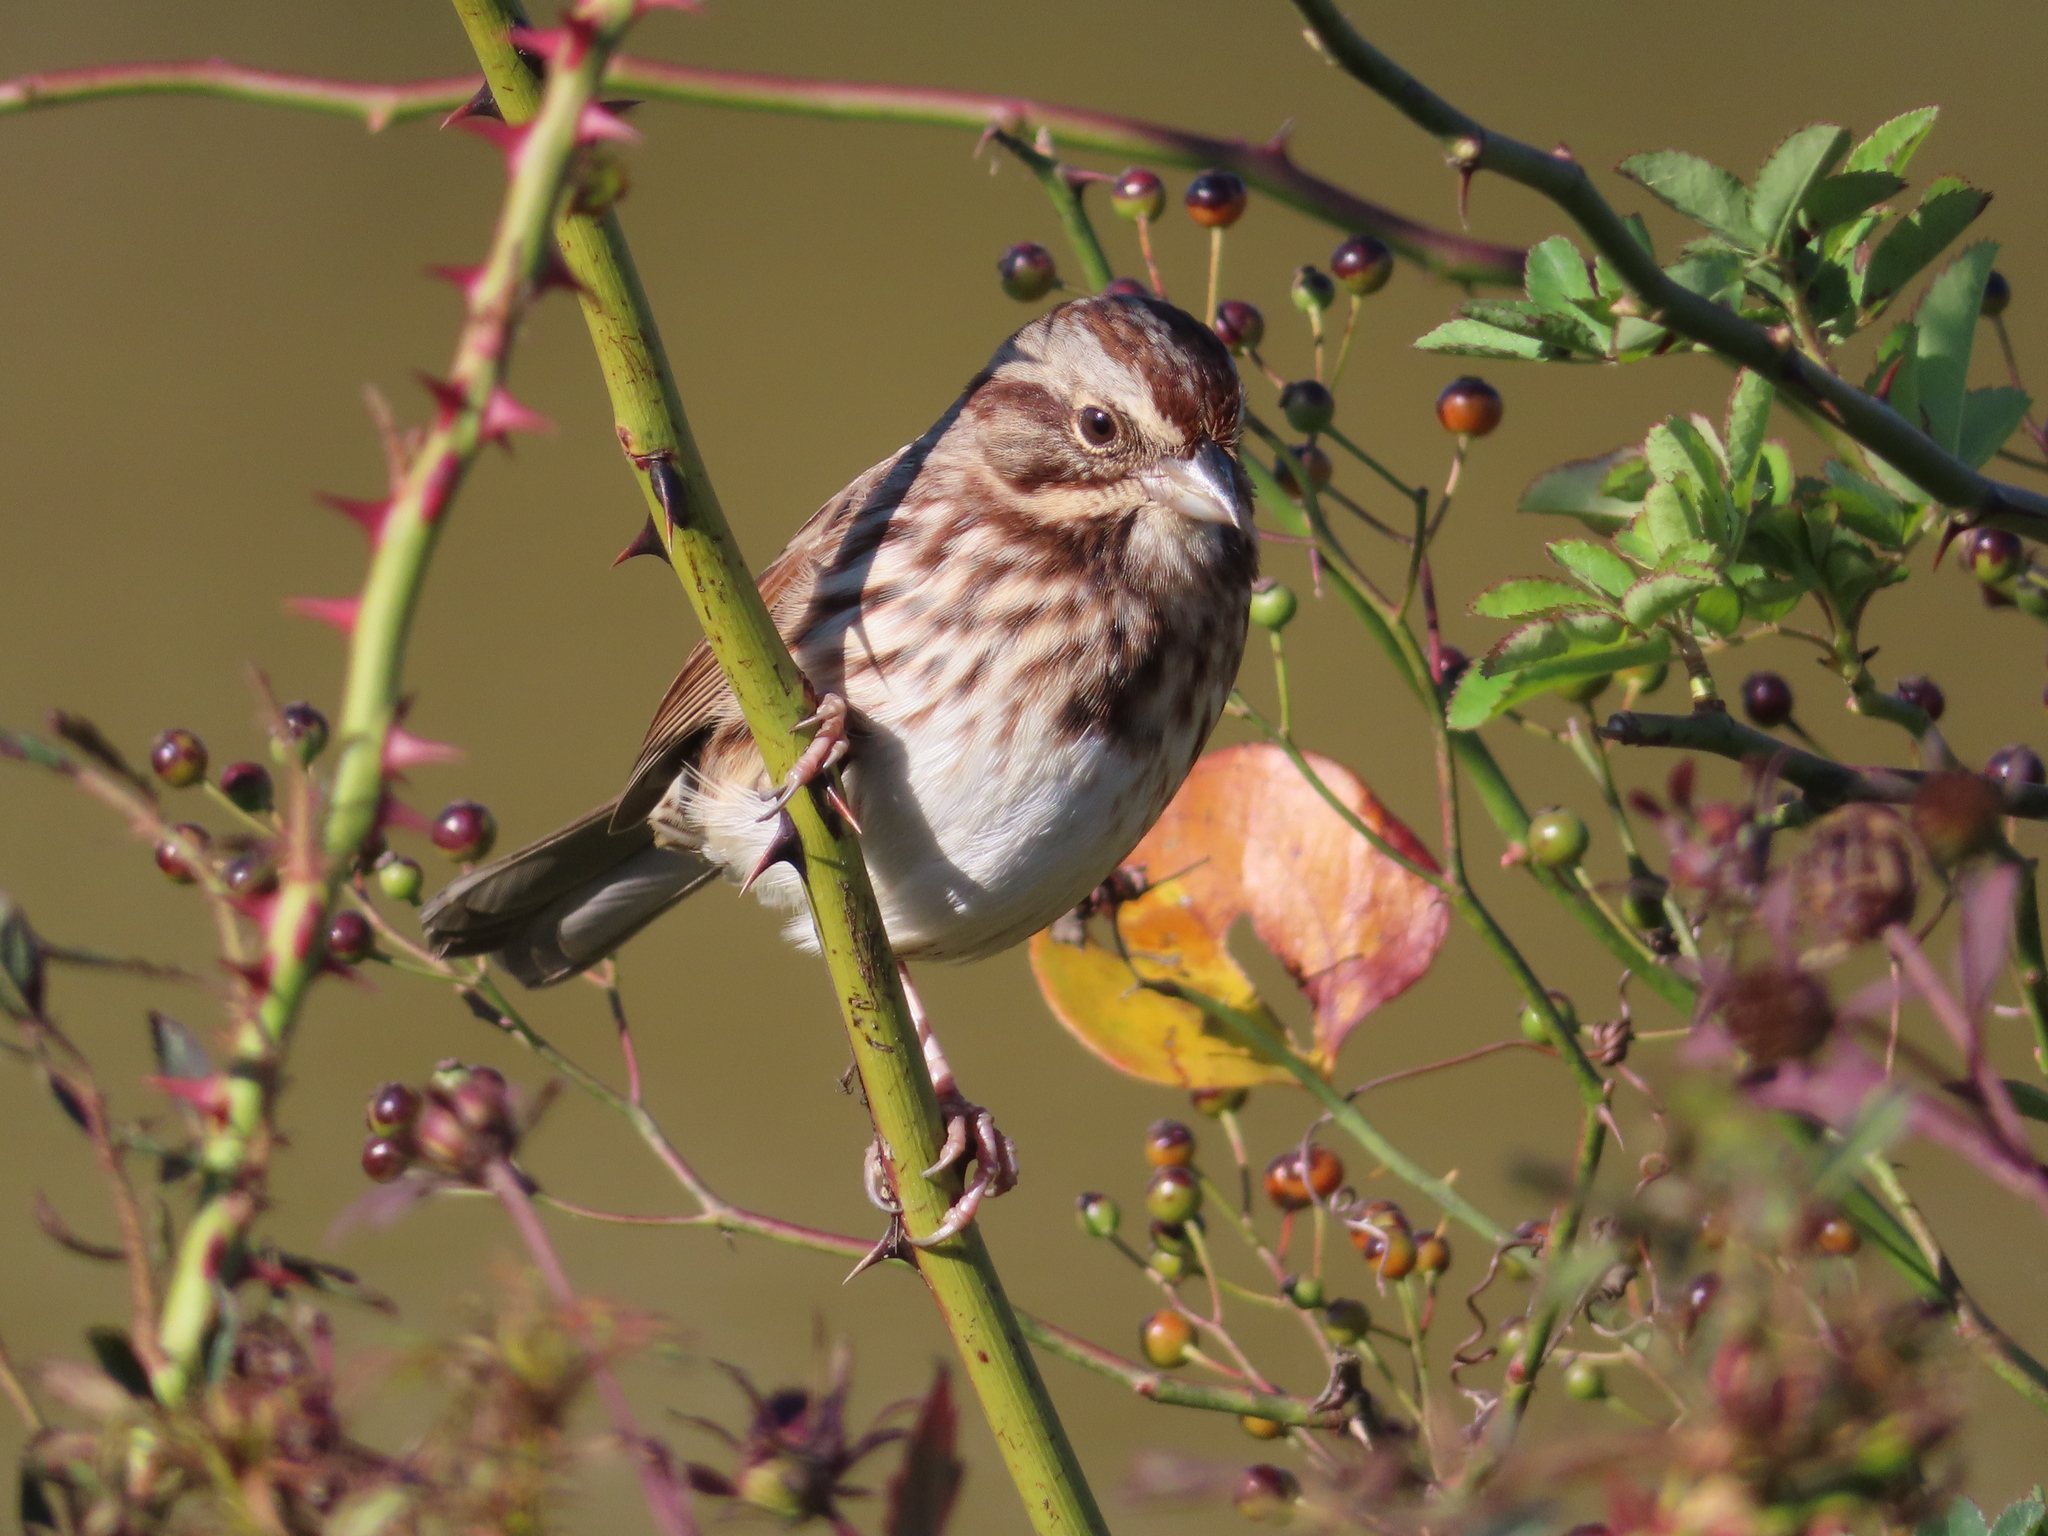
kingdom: Animalia
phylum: Chordata
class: Aves
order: Passeriformes
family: Passerellidae
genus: Melospiza
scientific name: Melospiza melodia
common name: Song sparrow
